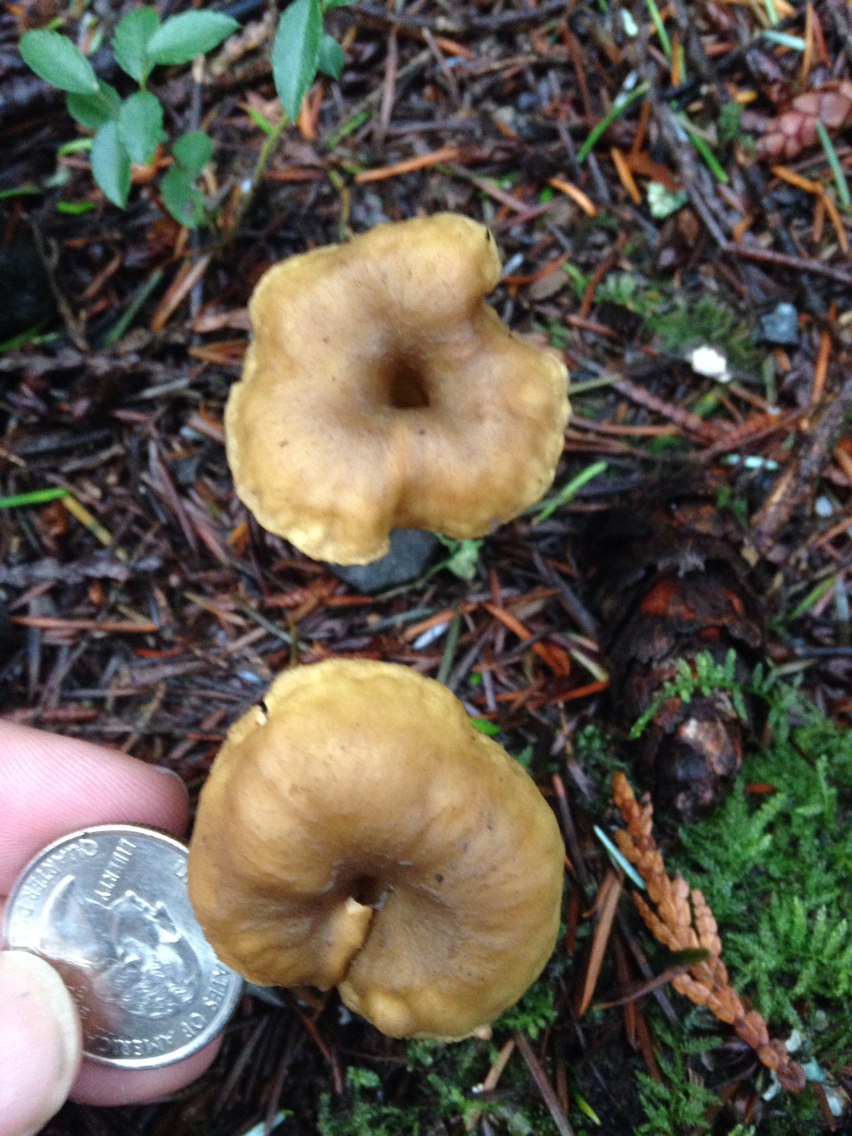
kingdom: Fungi
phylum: Basidiomycota
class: Agaricomycetes
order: Cantharellales
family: Hydnaceae
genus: Craterellus
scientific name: Craterellus tubaeformis
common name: Yellowfoot
